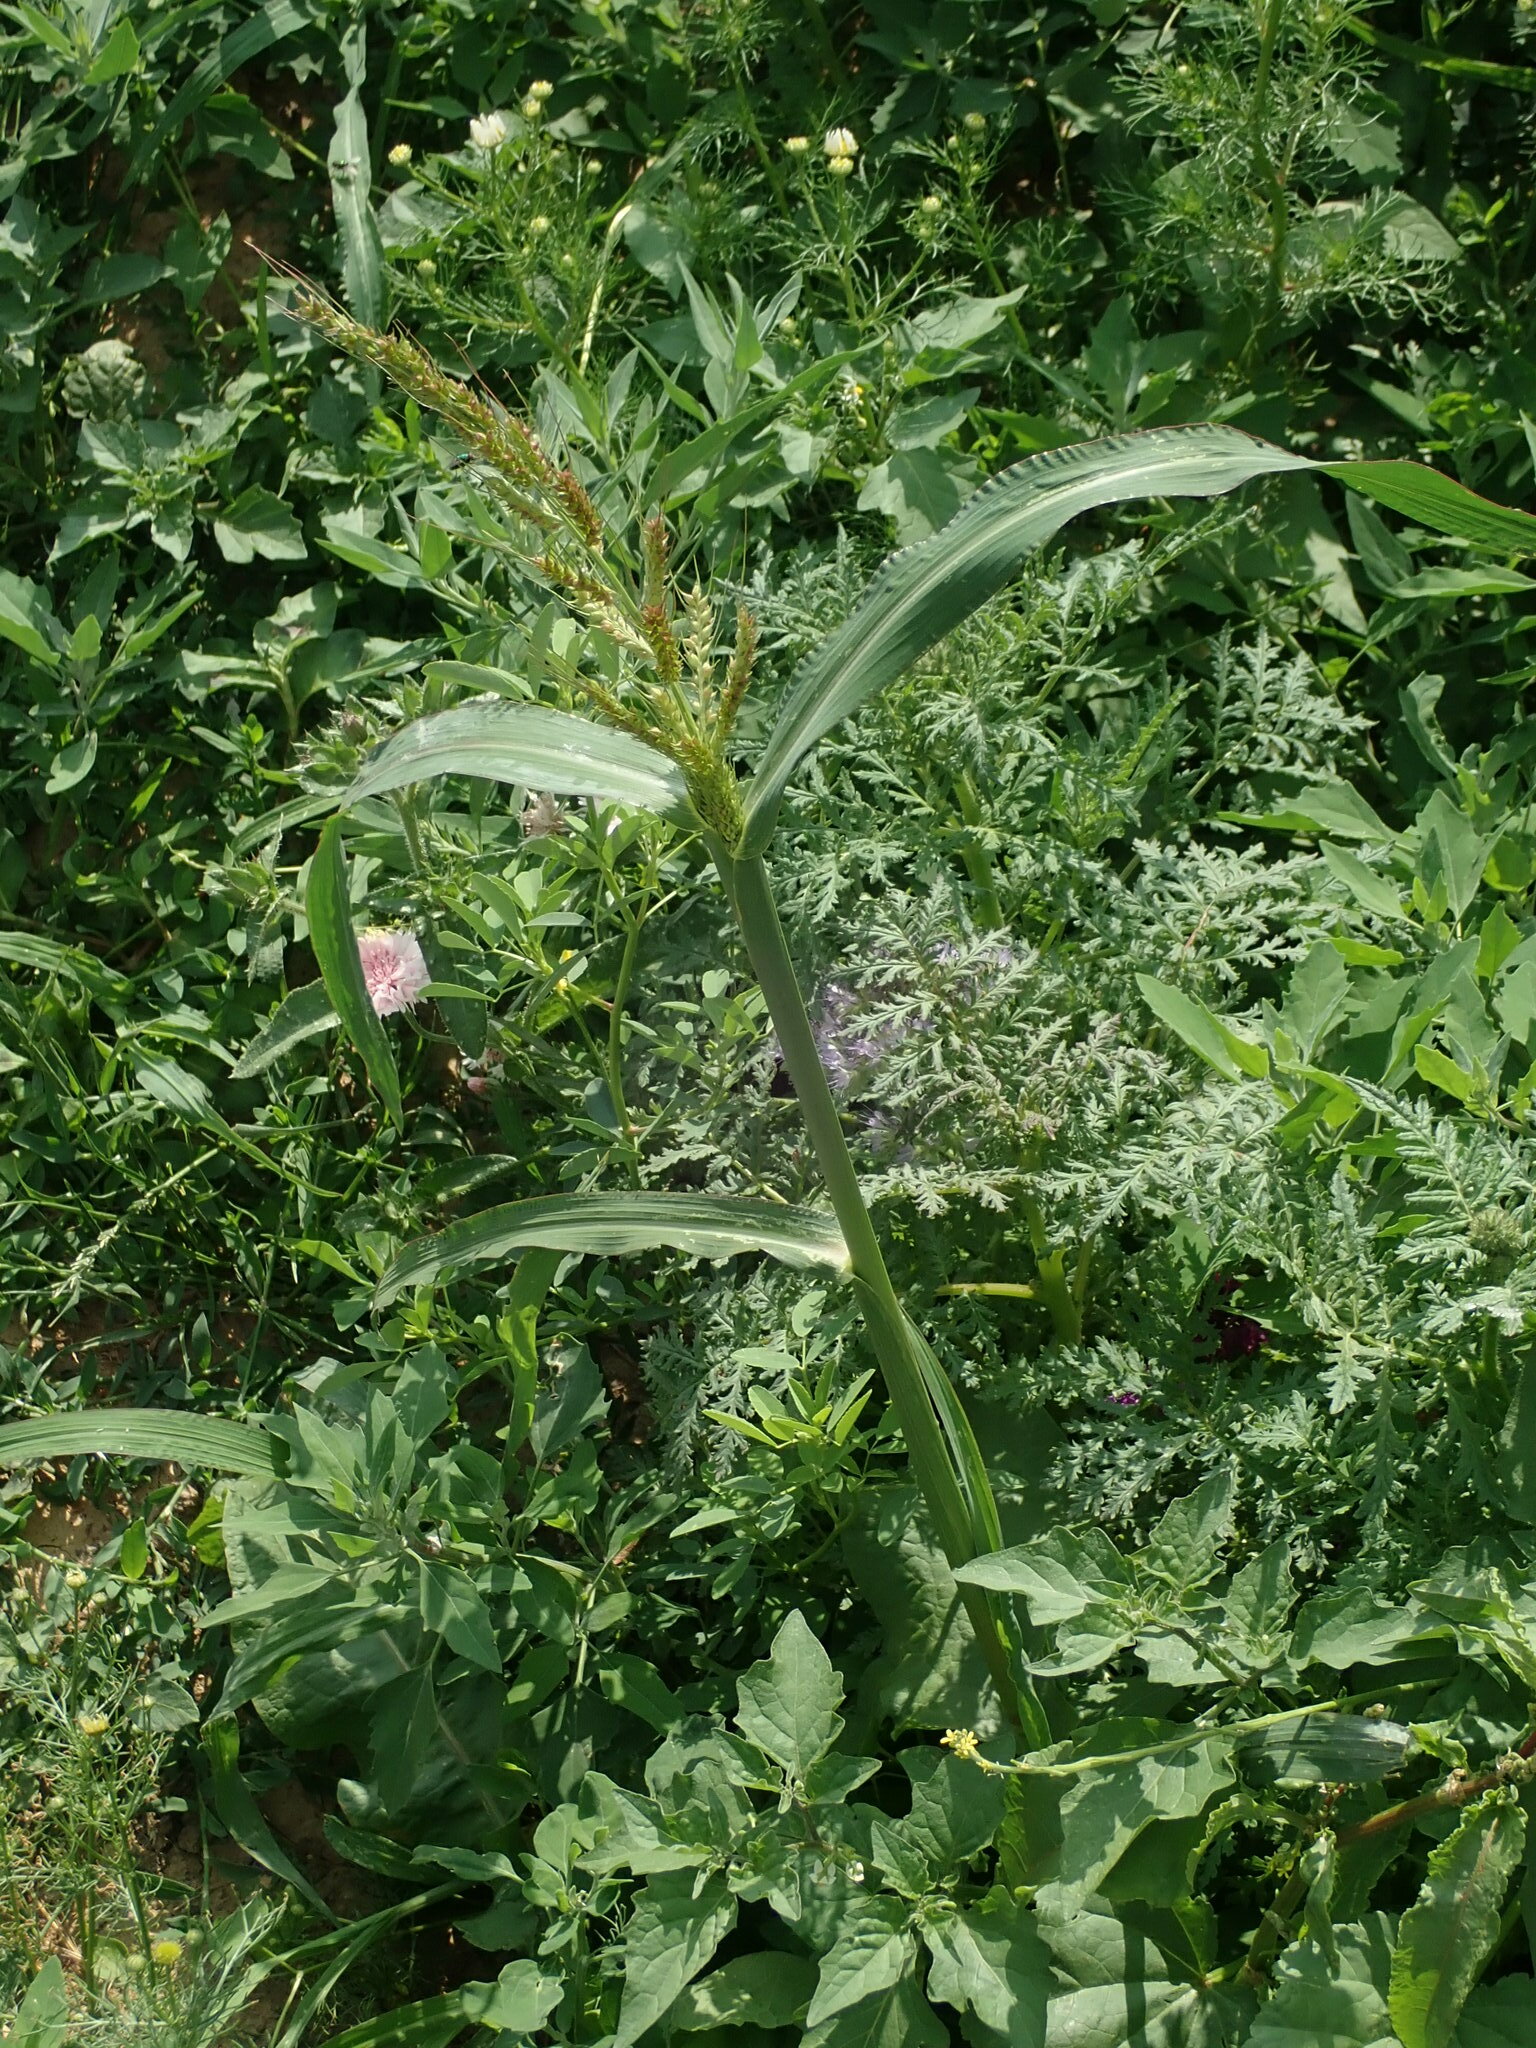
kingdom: Plantae
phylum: Tracheophyta
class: Liliopsida
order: Poales
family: Poaceae
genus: Echinochloa
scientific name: Echinochloa crus-galli
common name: Cockspur
